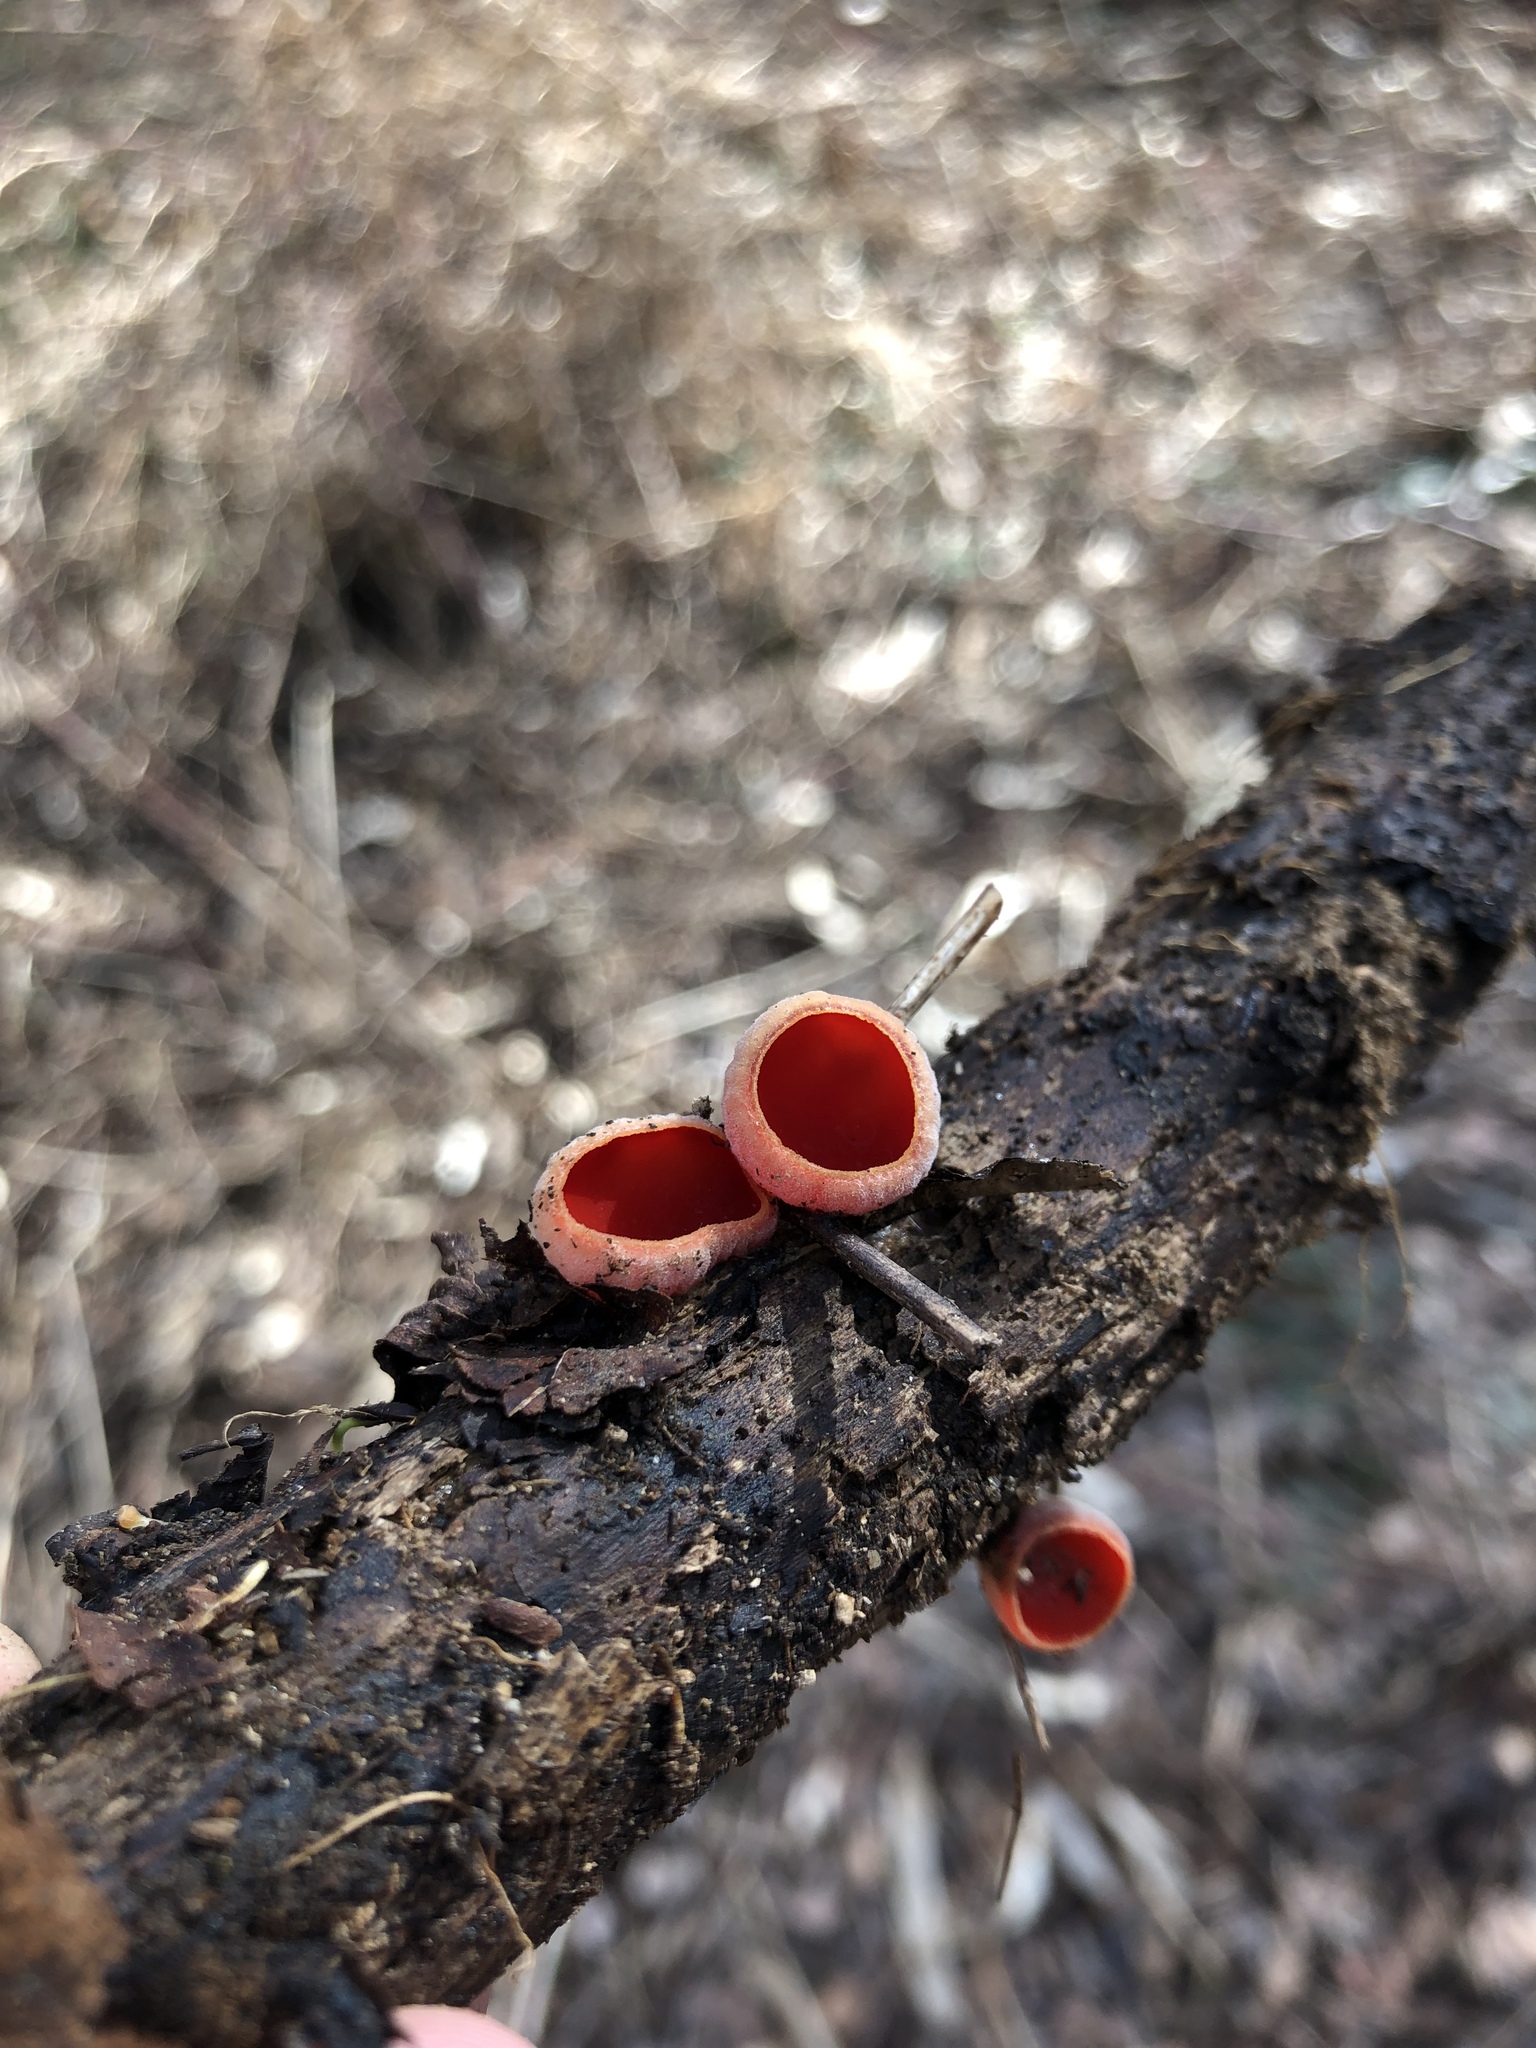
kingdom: Fungi
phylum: Ascomycota
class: Pezizomycetes
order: Pezizales
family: Sarcoscyphaceae
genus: Sarcoscypha
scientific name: Sarcoscypha
